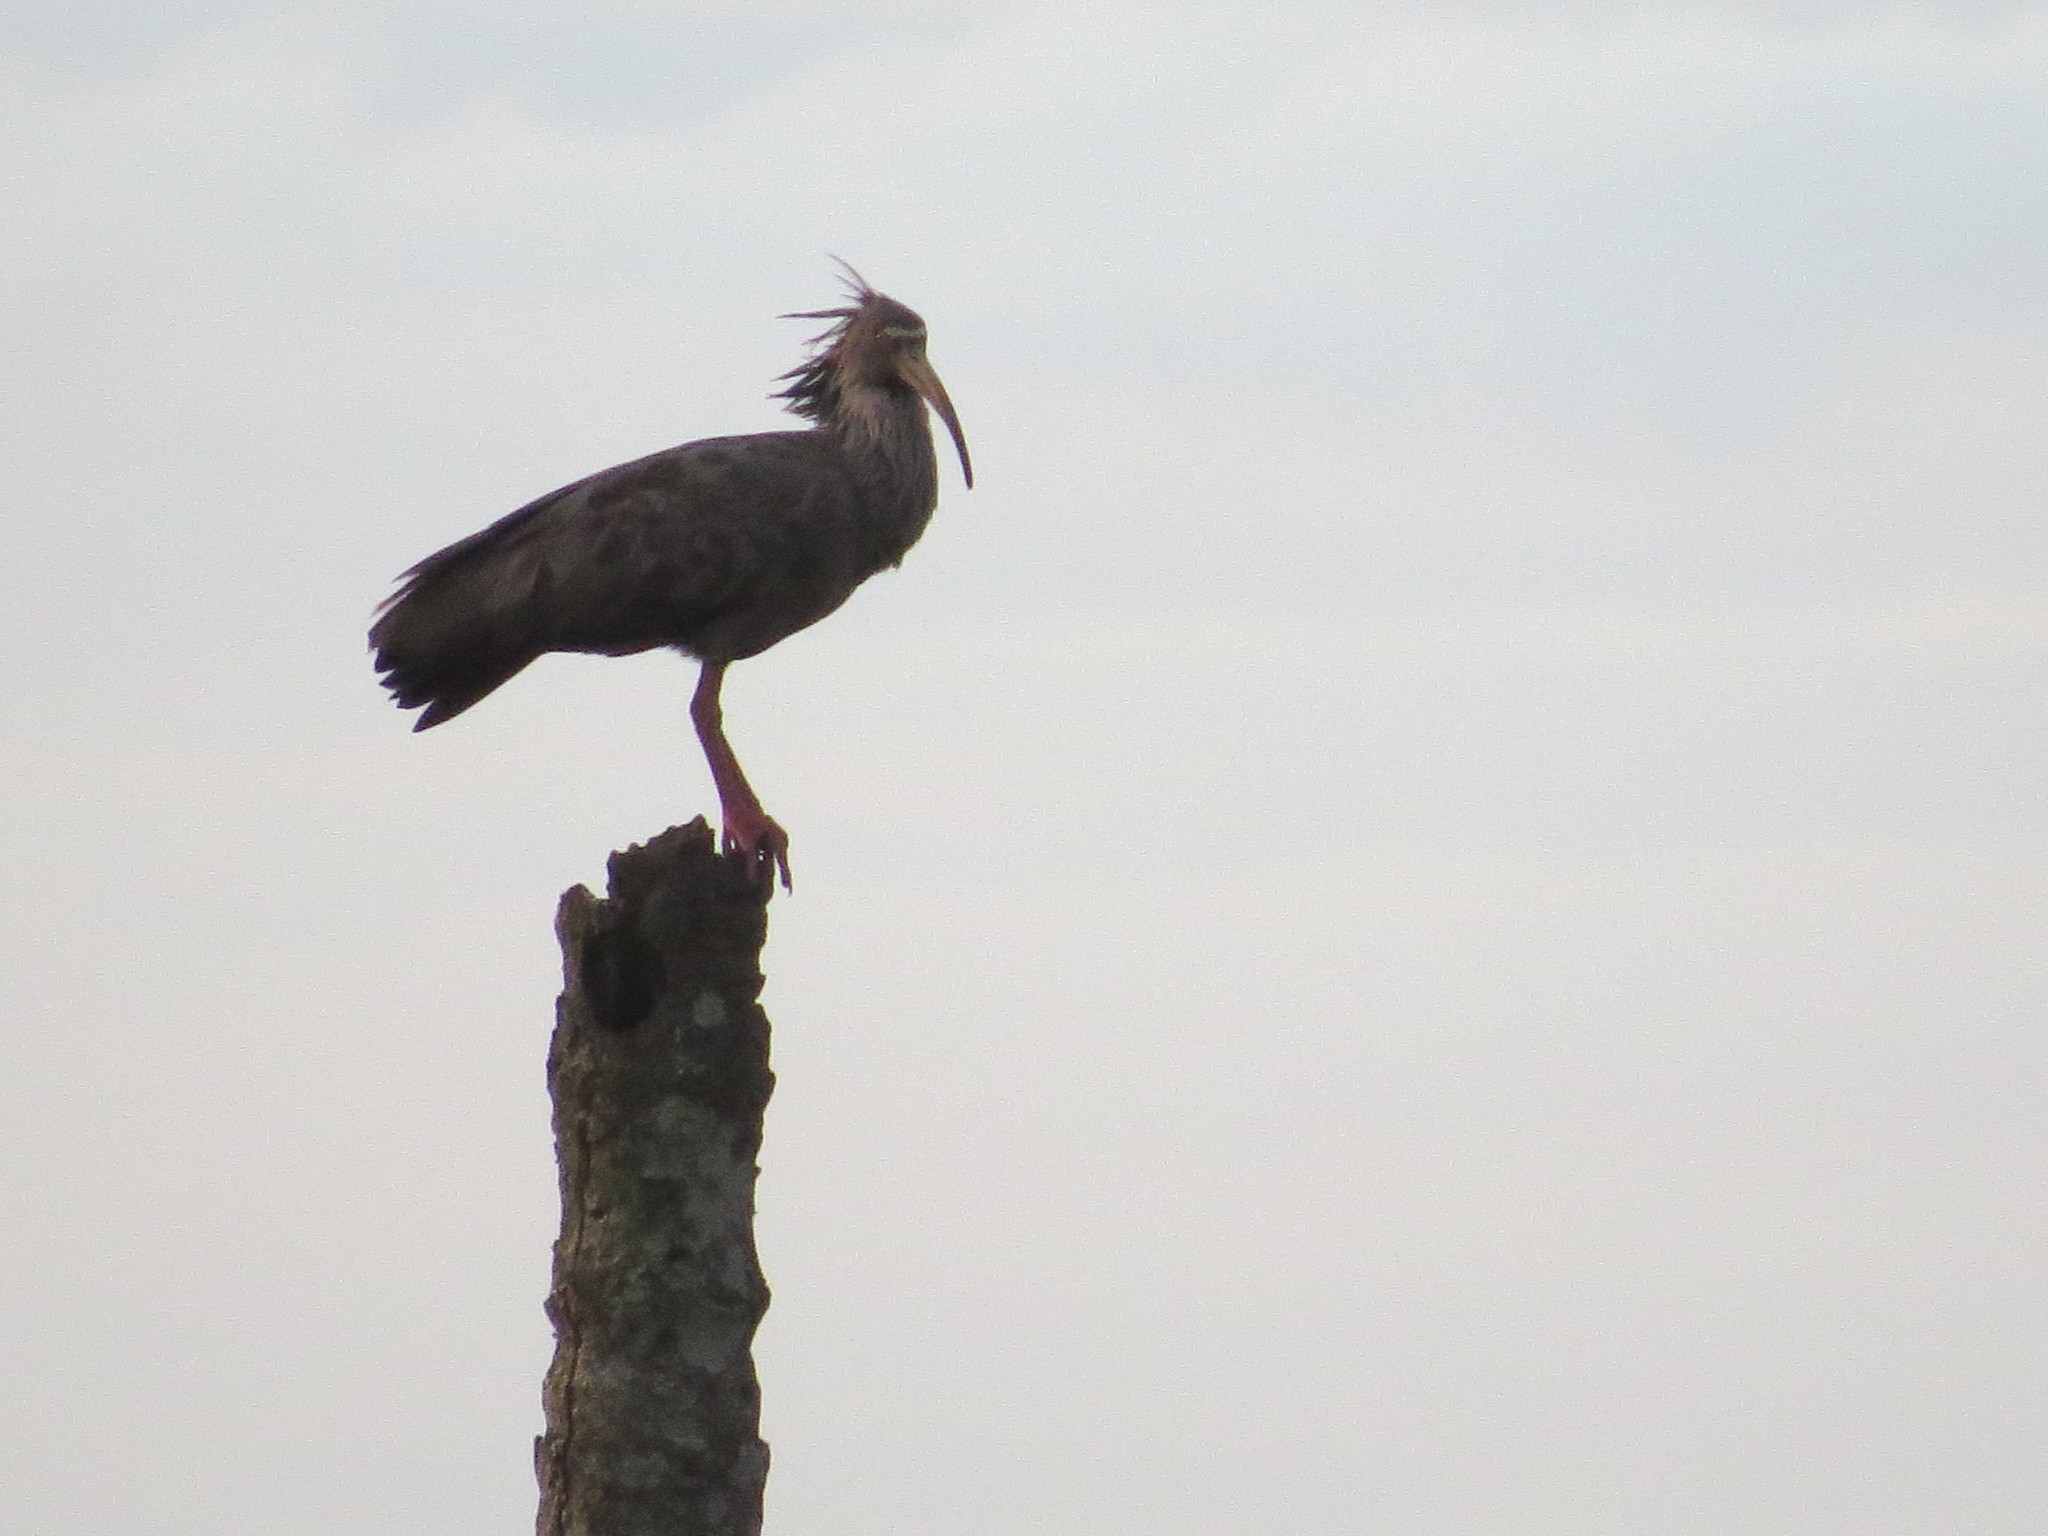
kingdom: Animalia
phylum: Chordata
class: Aves
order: Pelecaniformes
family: Threskiornithidae
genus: Theristicus
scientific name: Theristicus caerulescens
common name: Plumbeous ibis
